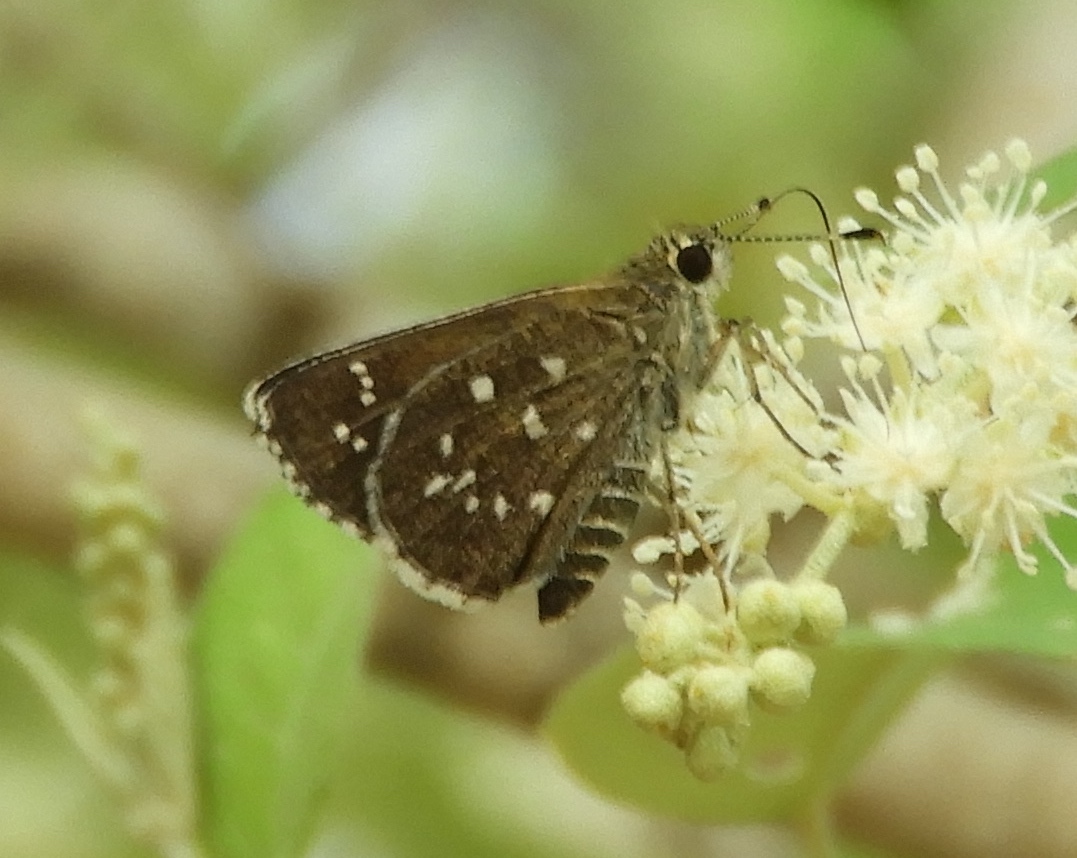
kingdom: Animalia
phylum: Arthropoda
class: Insecta
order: Lepidoptera
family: Hesperiidae
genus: Mastor
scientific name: Mastor tolteca
